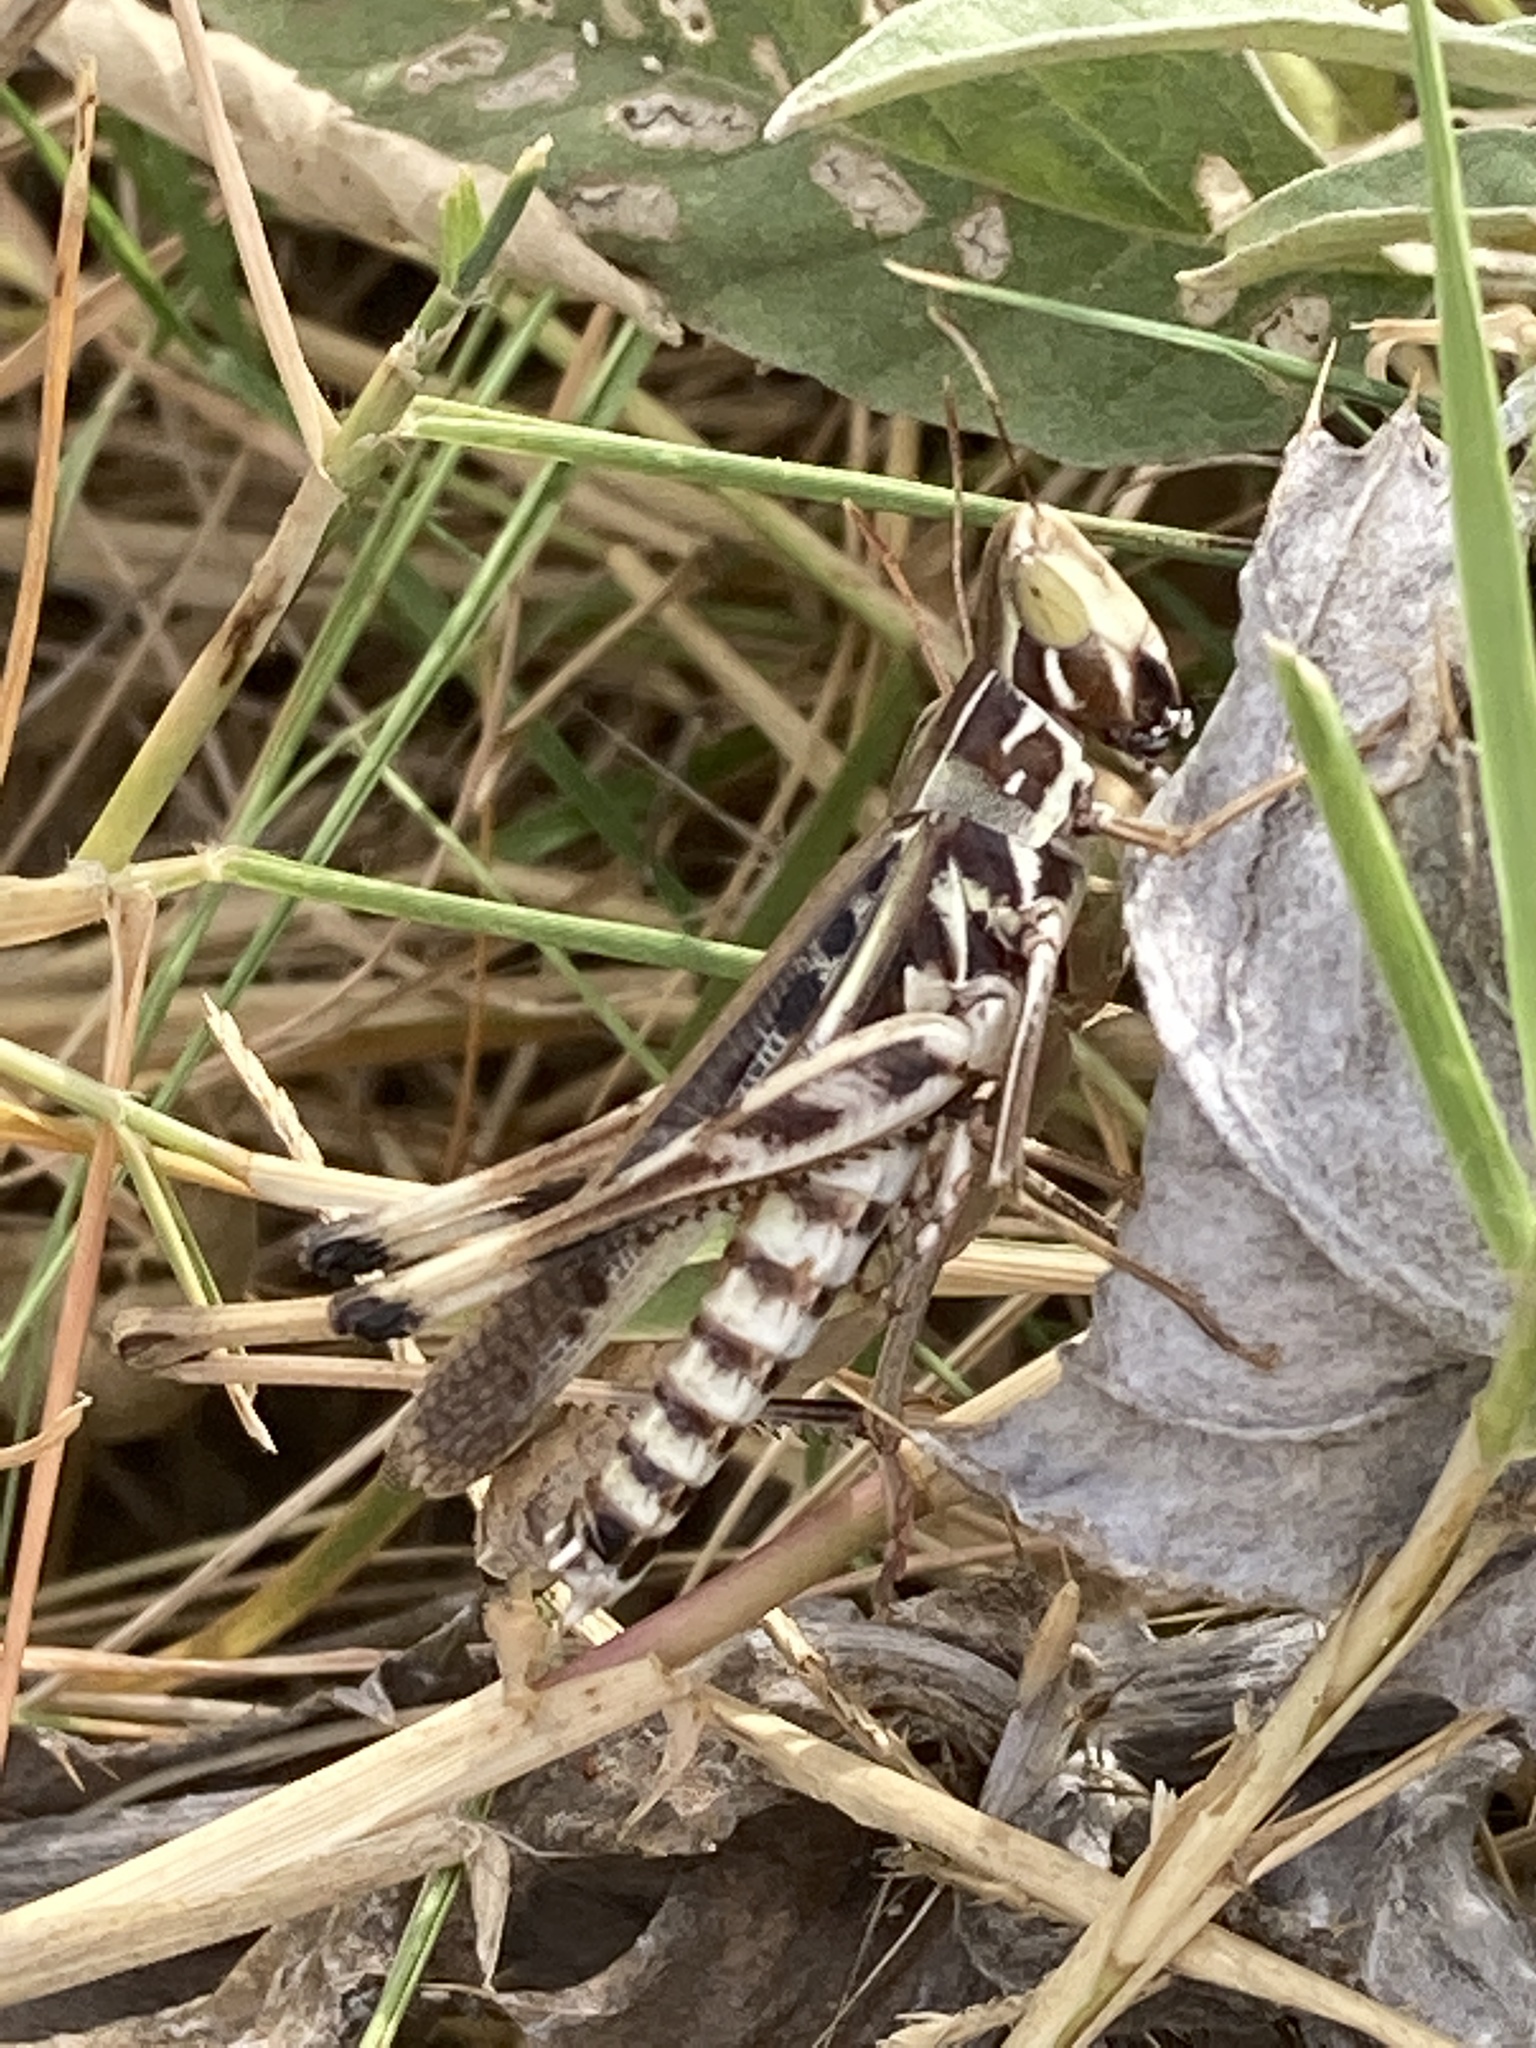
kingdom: Animalia
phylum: Arthropoda
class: Insecta
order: Orthoptera
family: Acrididae
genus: Syrbula
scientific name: Syrbula admirabilis
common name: Handsome grasshopper
